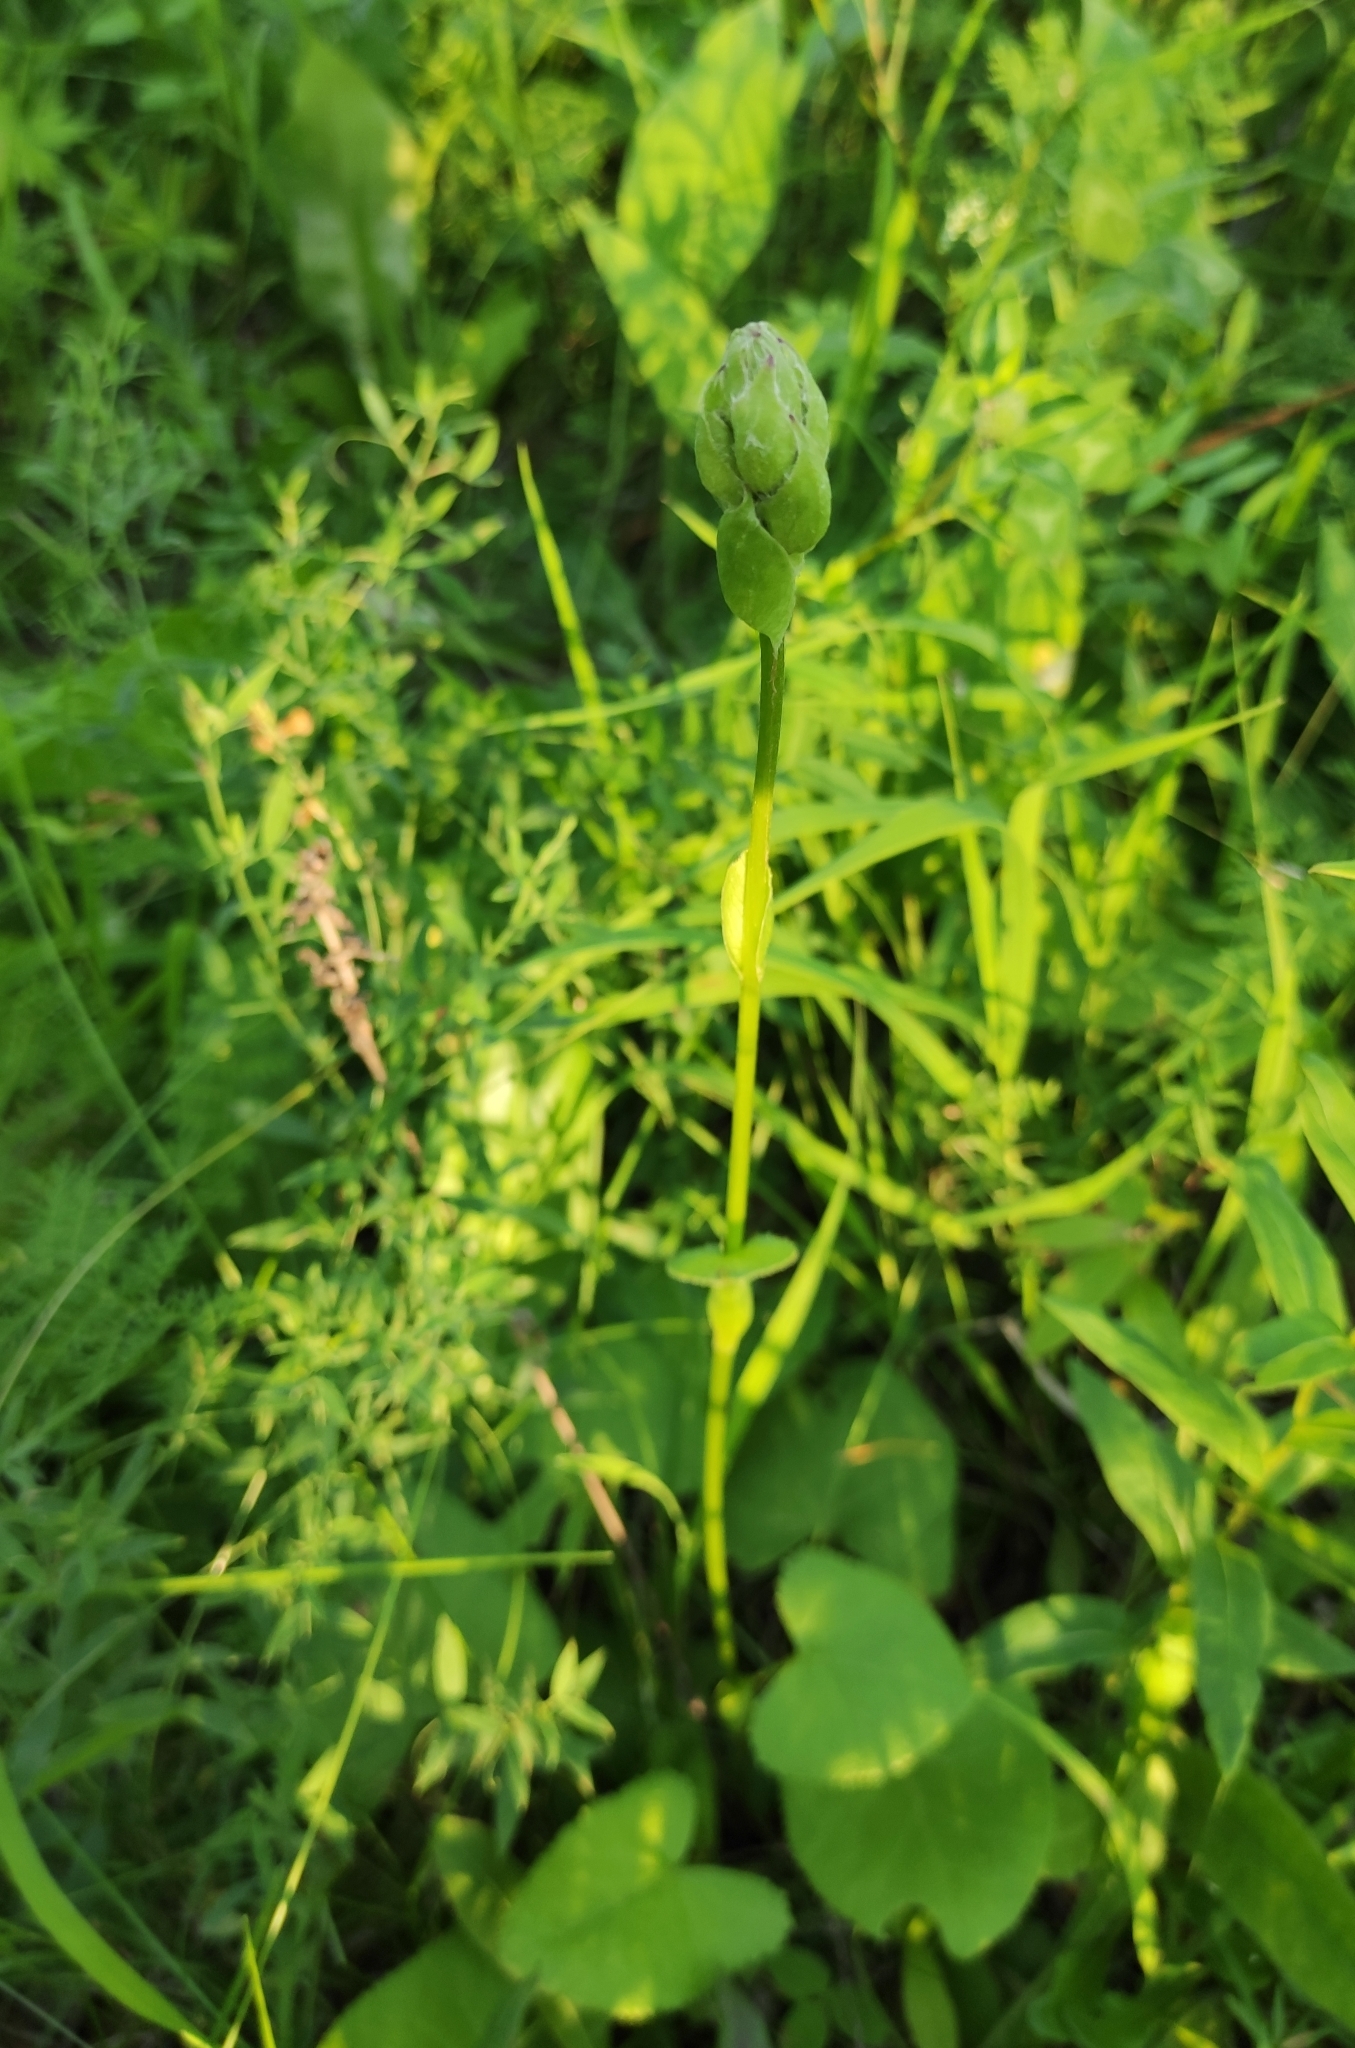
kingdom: Plantae
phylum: Tracheophyta
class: Magnoliopsida
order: Asterales
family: Asteraceae
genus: Ligularia
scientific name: Ligularia sibirica
